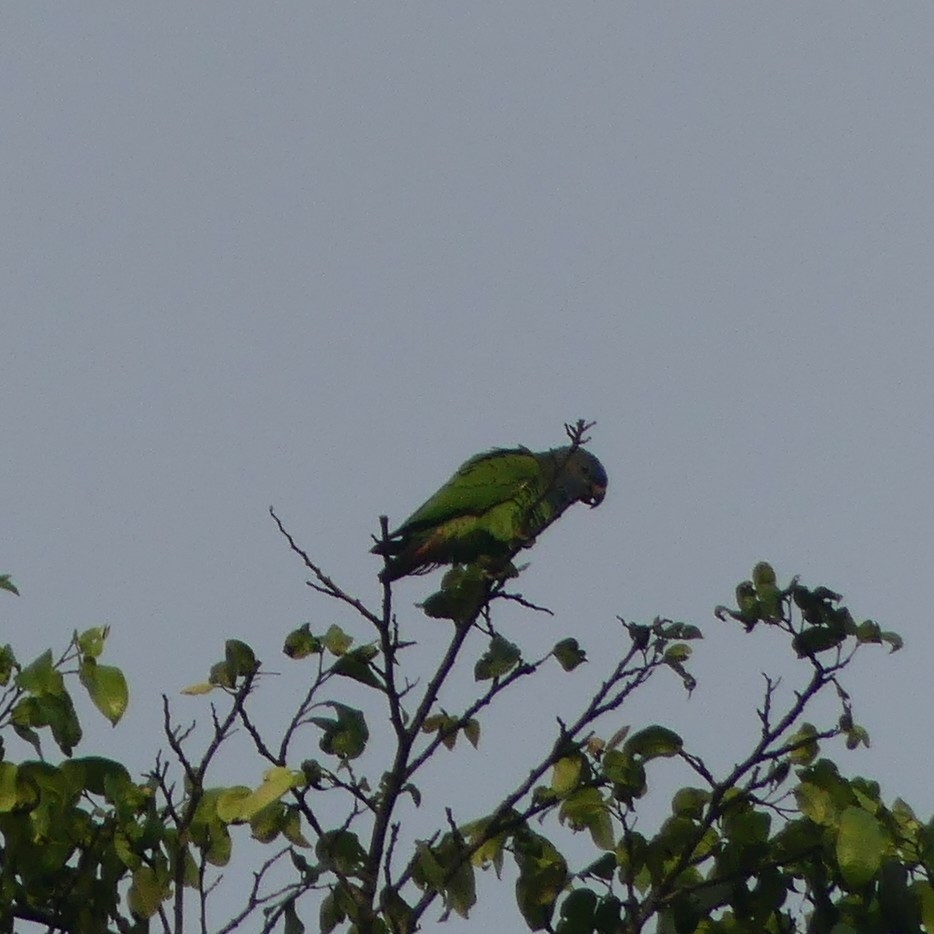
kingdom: Animalia
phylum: Chordata
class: Aves
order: Psittaciformes
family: Psittacidae
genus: Pionus
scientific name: Pionus menstruus
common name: Blue-headed parrot
